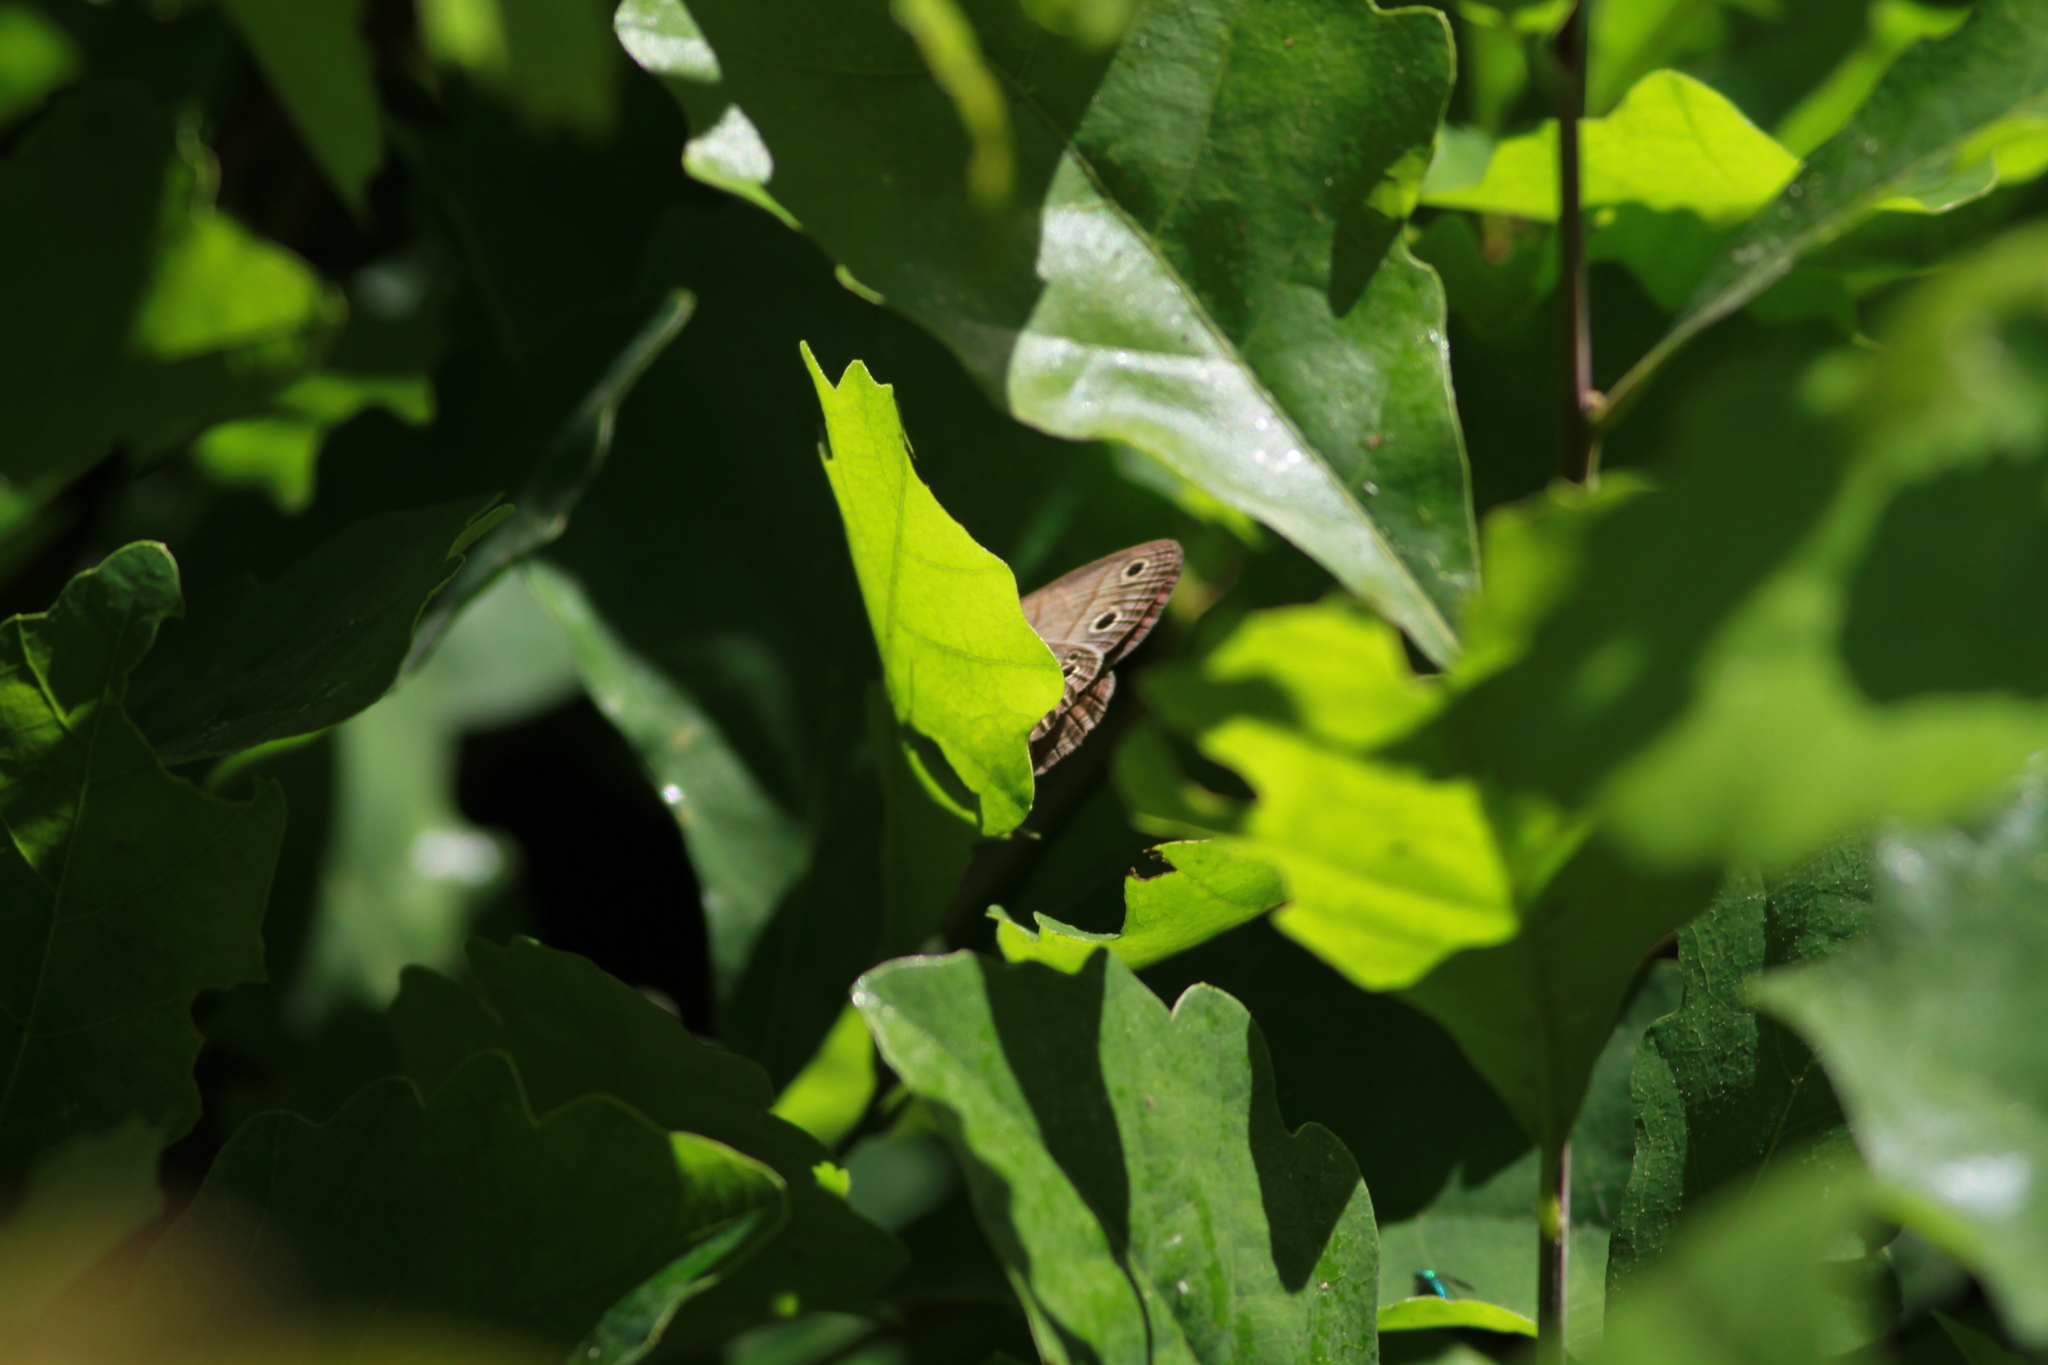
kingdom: Animalia
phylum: Arthropoda
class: Insecta
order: Lepidoptera
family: Nymphalidae
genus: Euptychia
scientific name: Euptychia cymela
